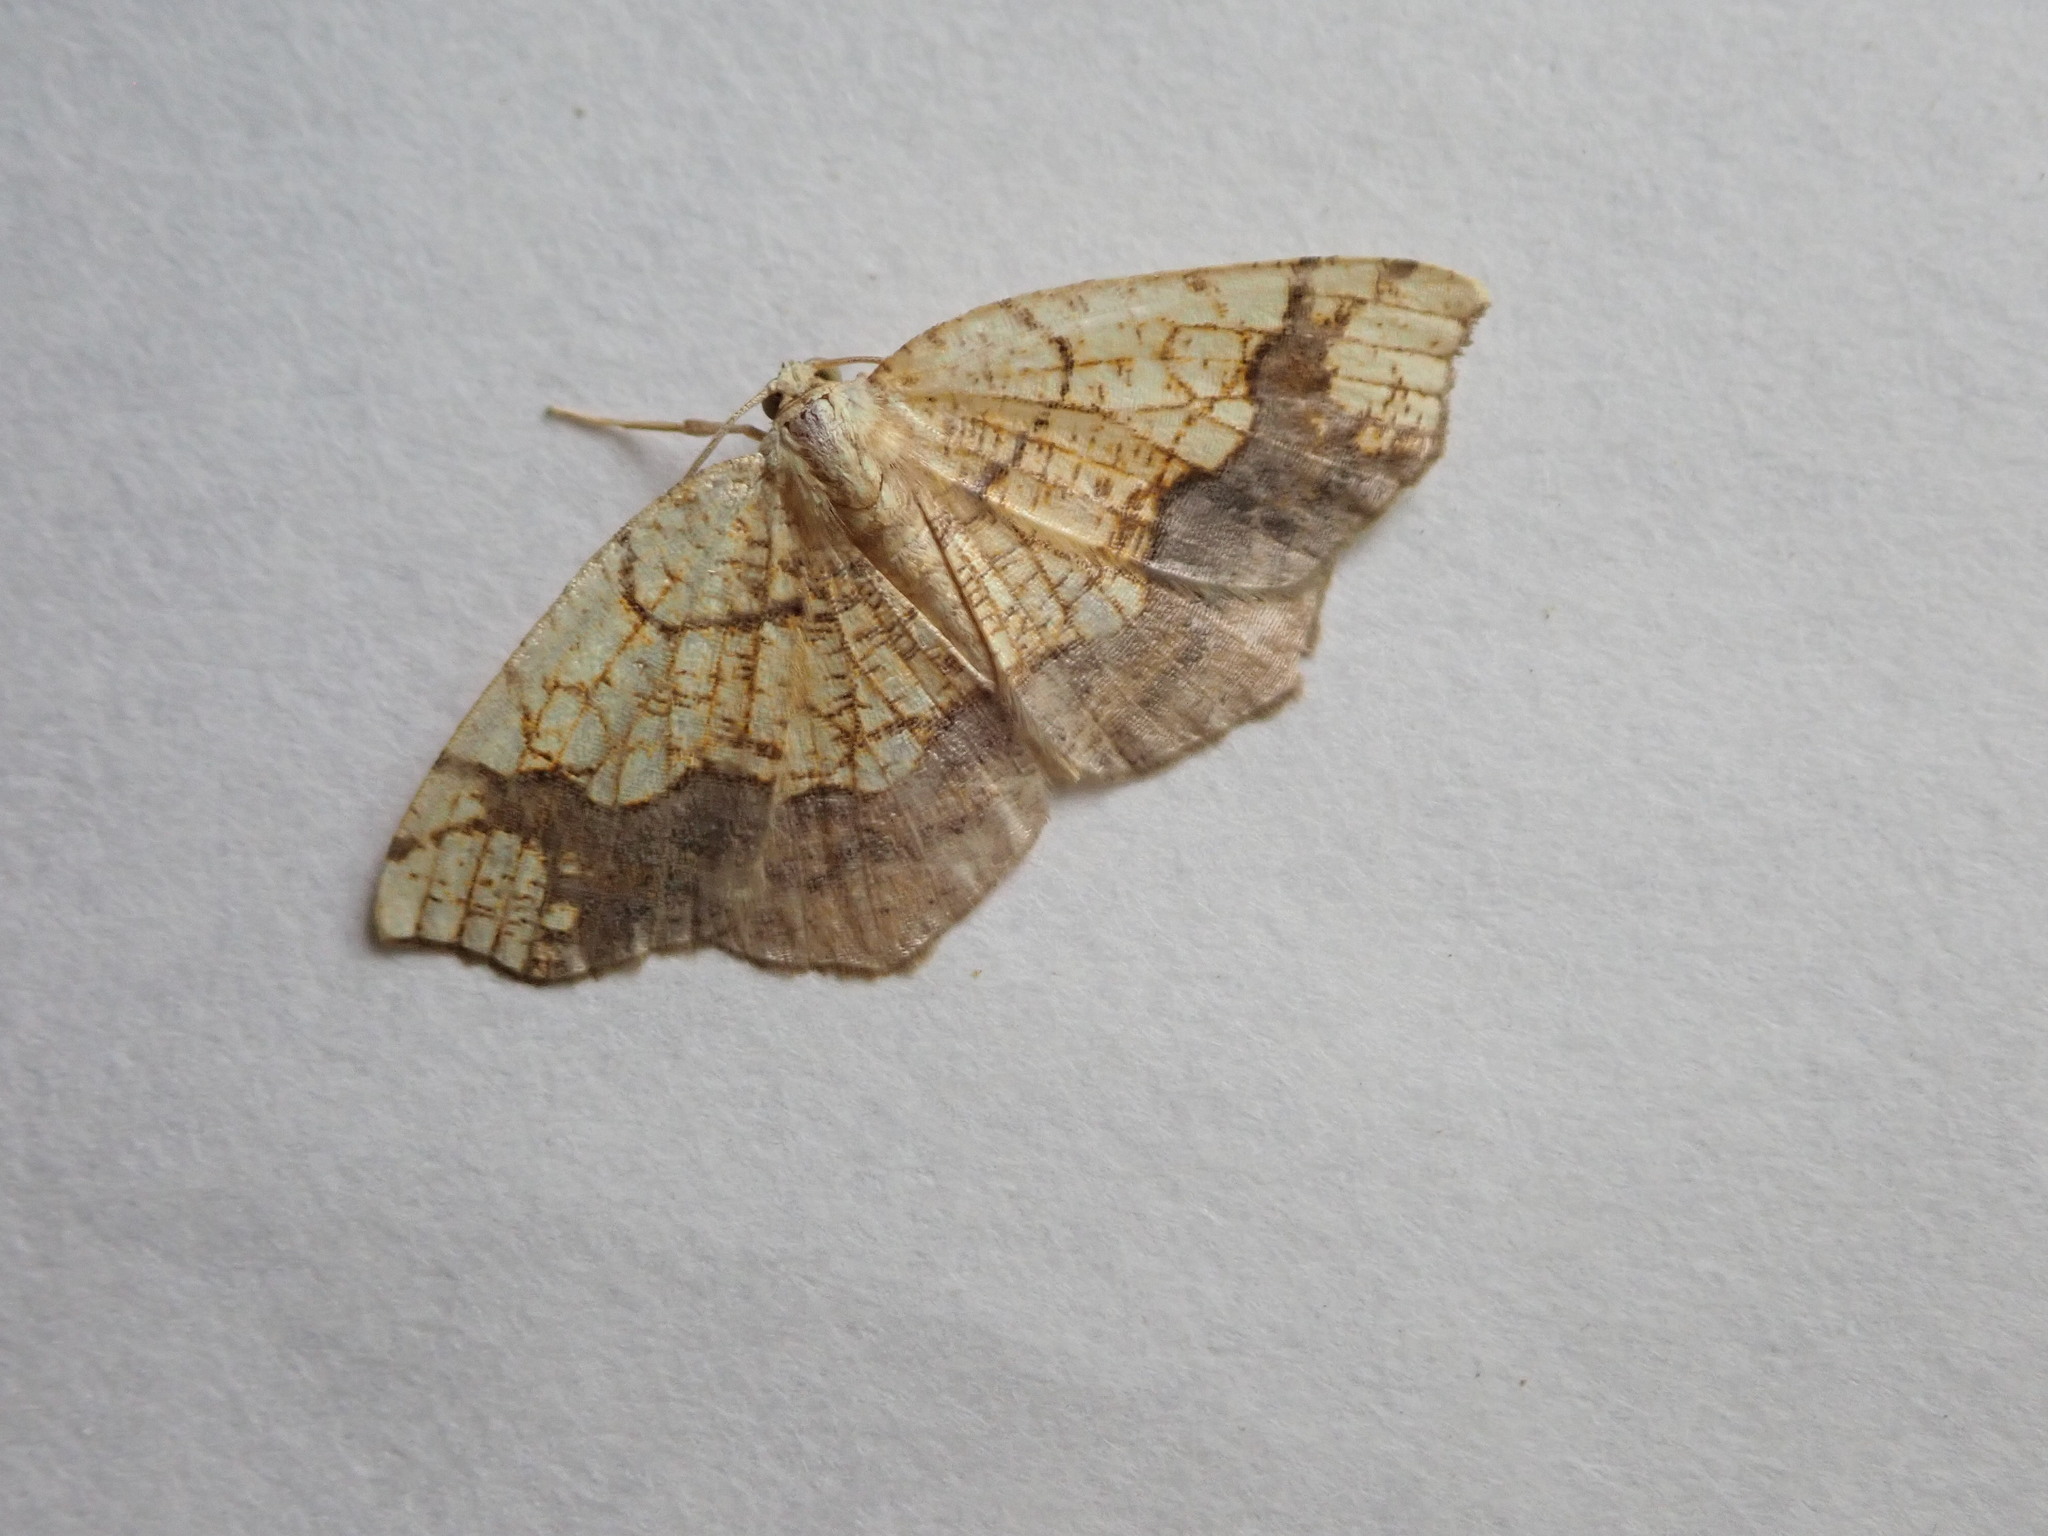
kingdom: Animalia
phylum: Arthropoda
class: Insecta
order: Lepidoptera
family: Geometridae
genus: Nematocampa
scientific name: Nematocampa resistaria
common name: Horned spanworm moth
